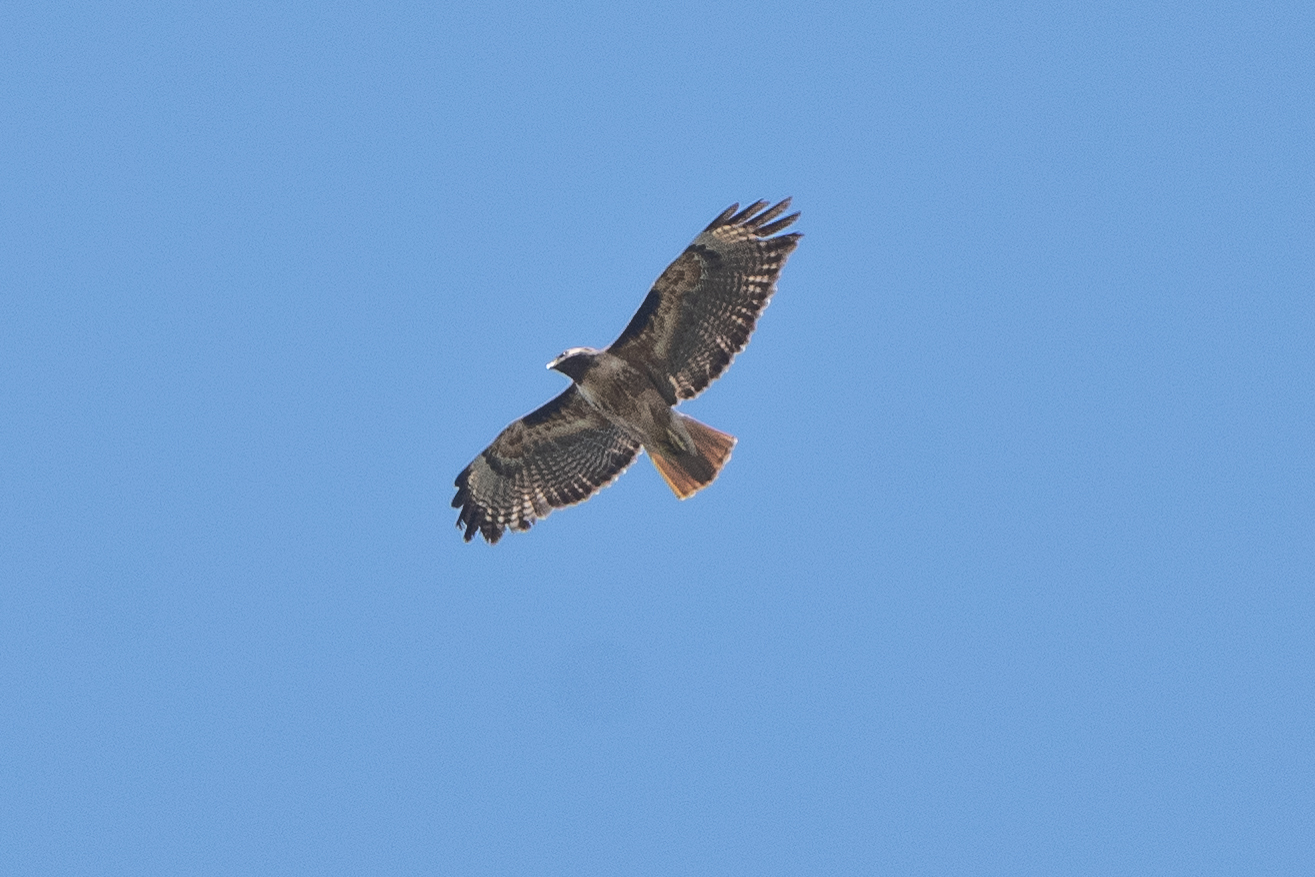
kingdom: Animalia
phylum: Chordata
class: Aves
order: Accipitriformes
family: Accipitridae
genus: Buteo
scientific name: Buteo jamaicensis
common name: Red-tailed hawk
